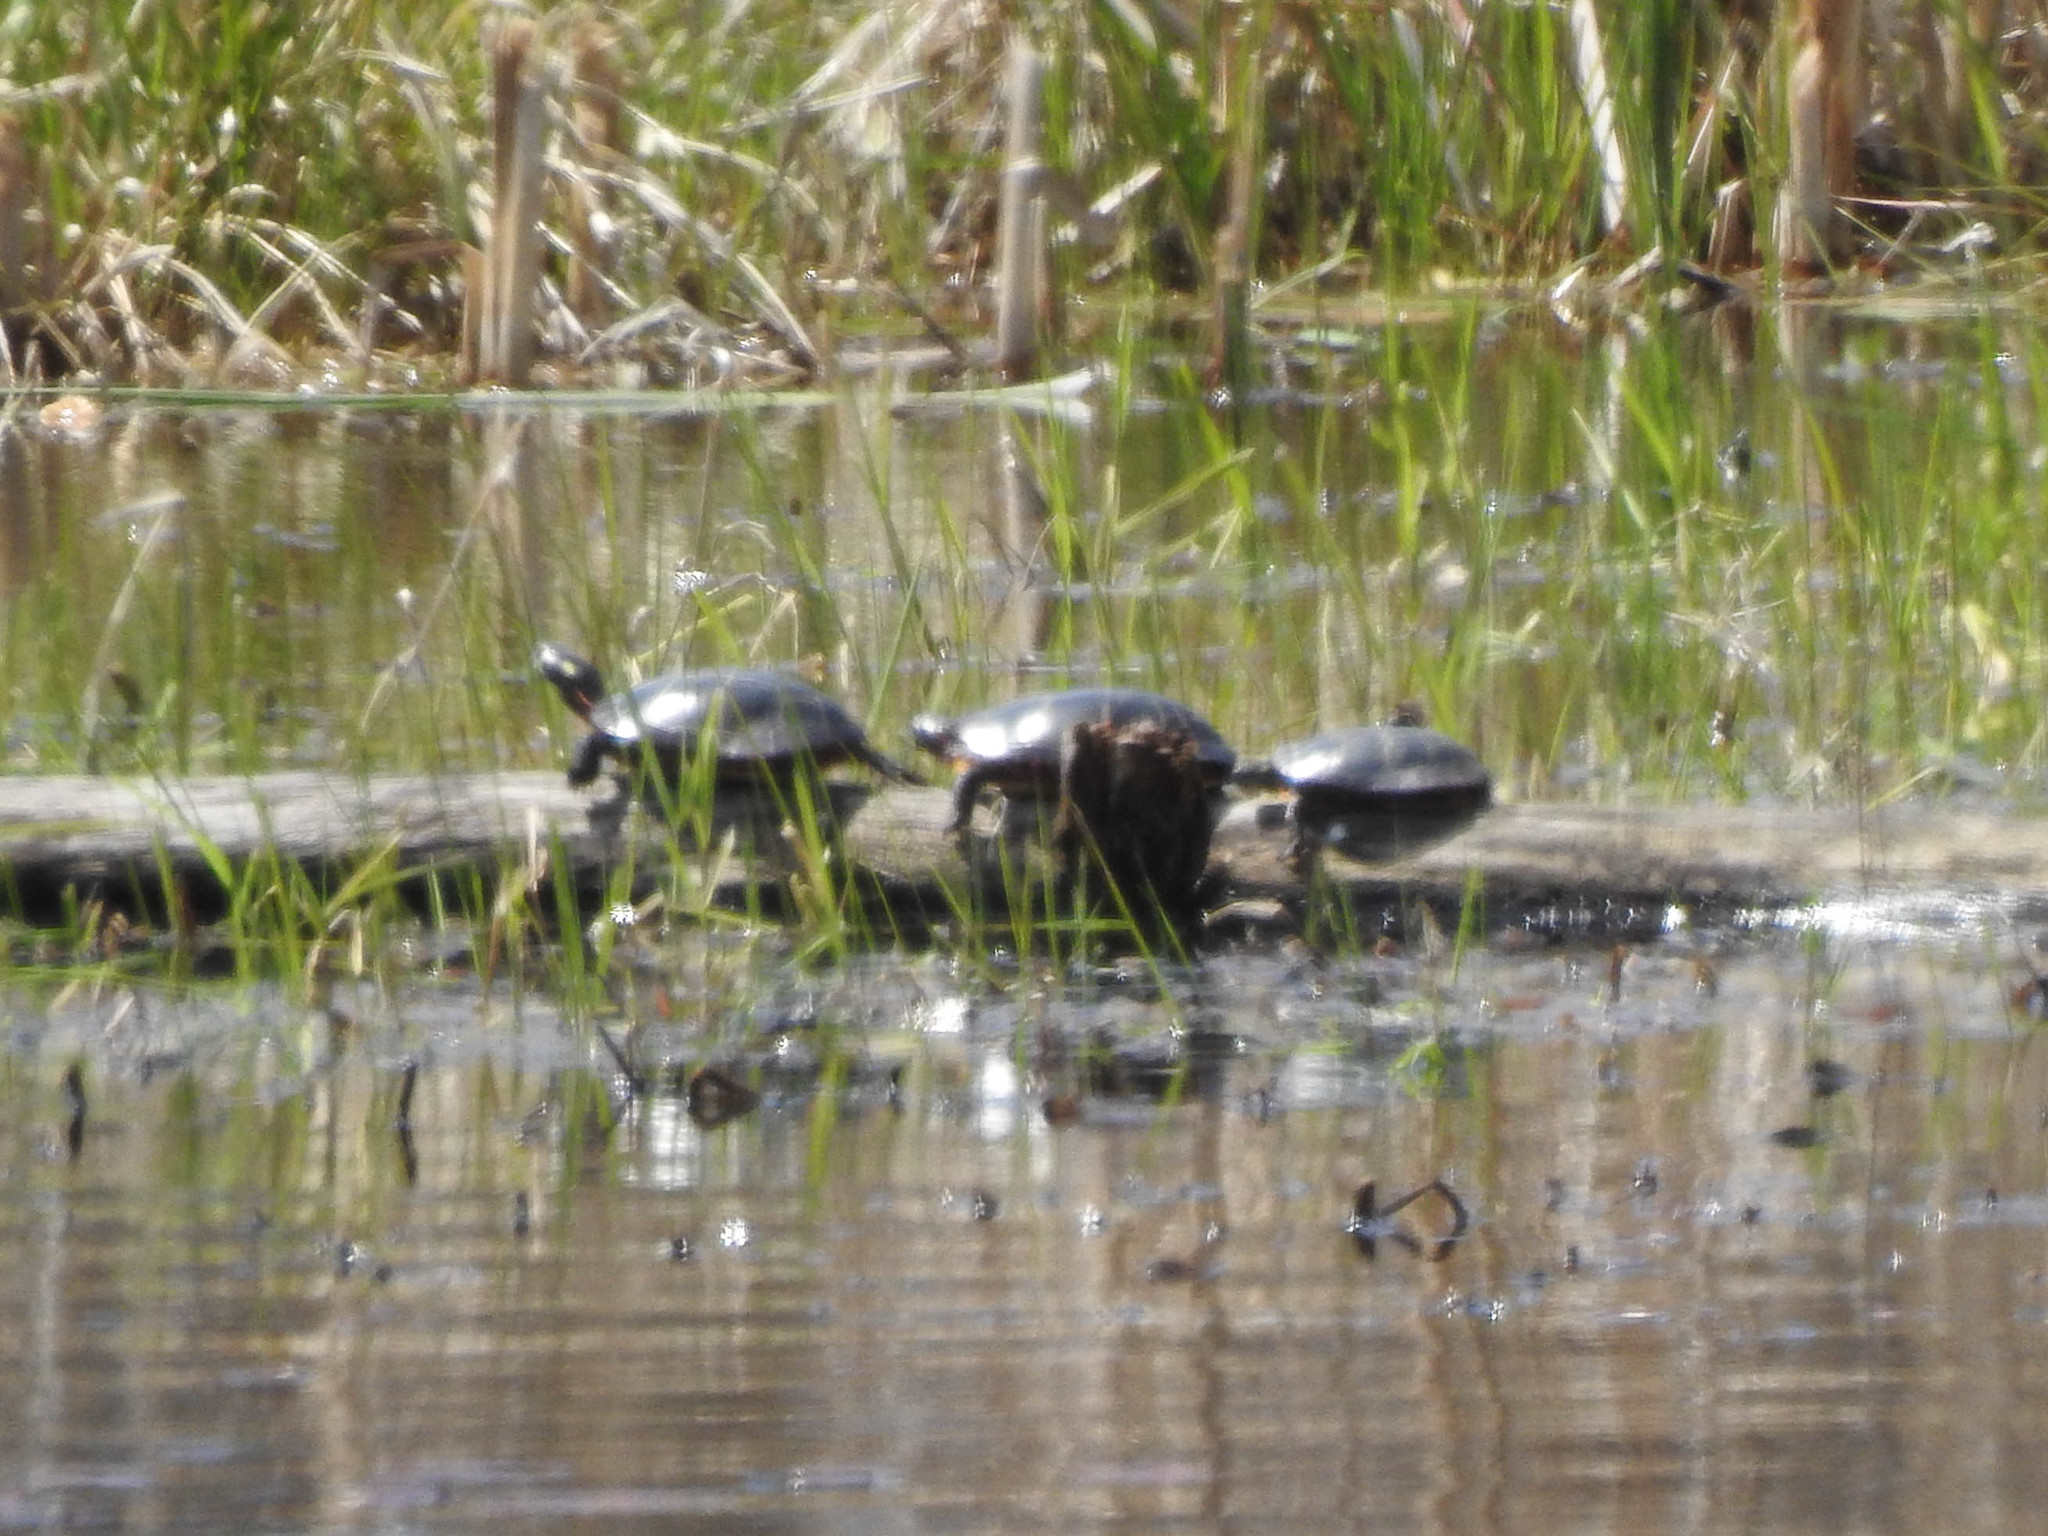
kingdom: Animalia
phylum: Chordata
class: Testudines
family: Emydidae
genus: Chrysemys
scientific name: Chrysemys picta
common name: Painted turtle
